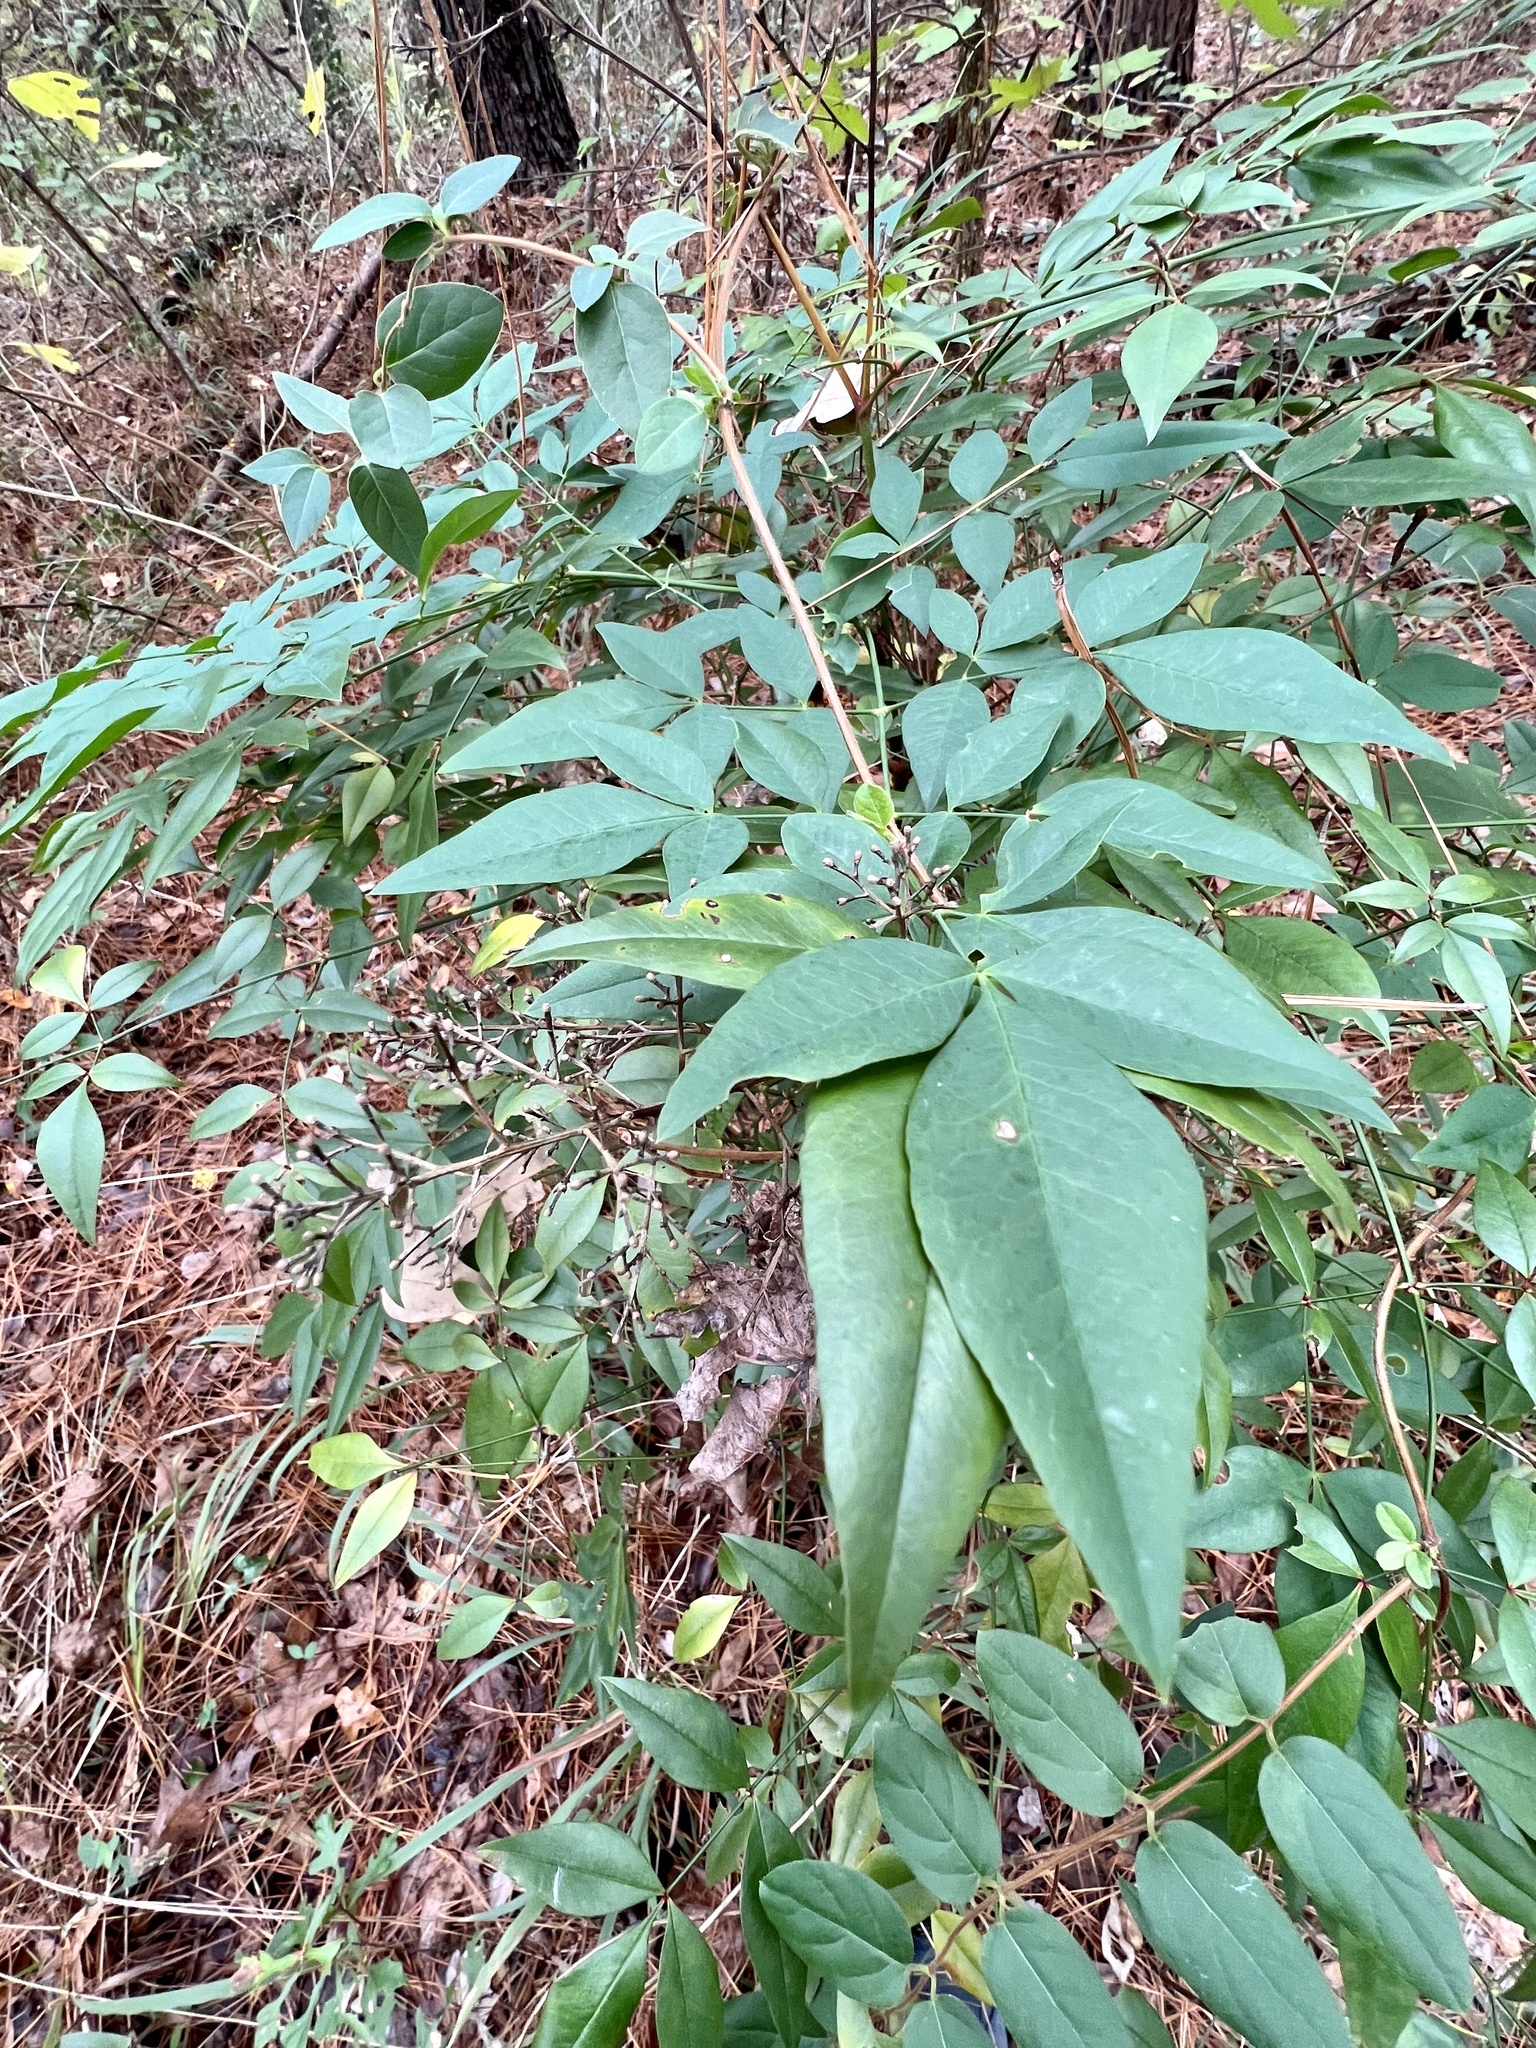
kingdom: Plantae
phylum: Tracheophyta
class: Magnoliopsida
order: Ranunculales
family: Berberidaceae
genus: Nandina
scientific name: Nandina domestica
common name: Sacred bamboo
